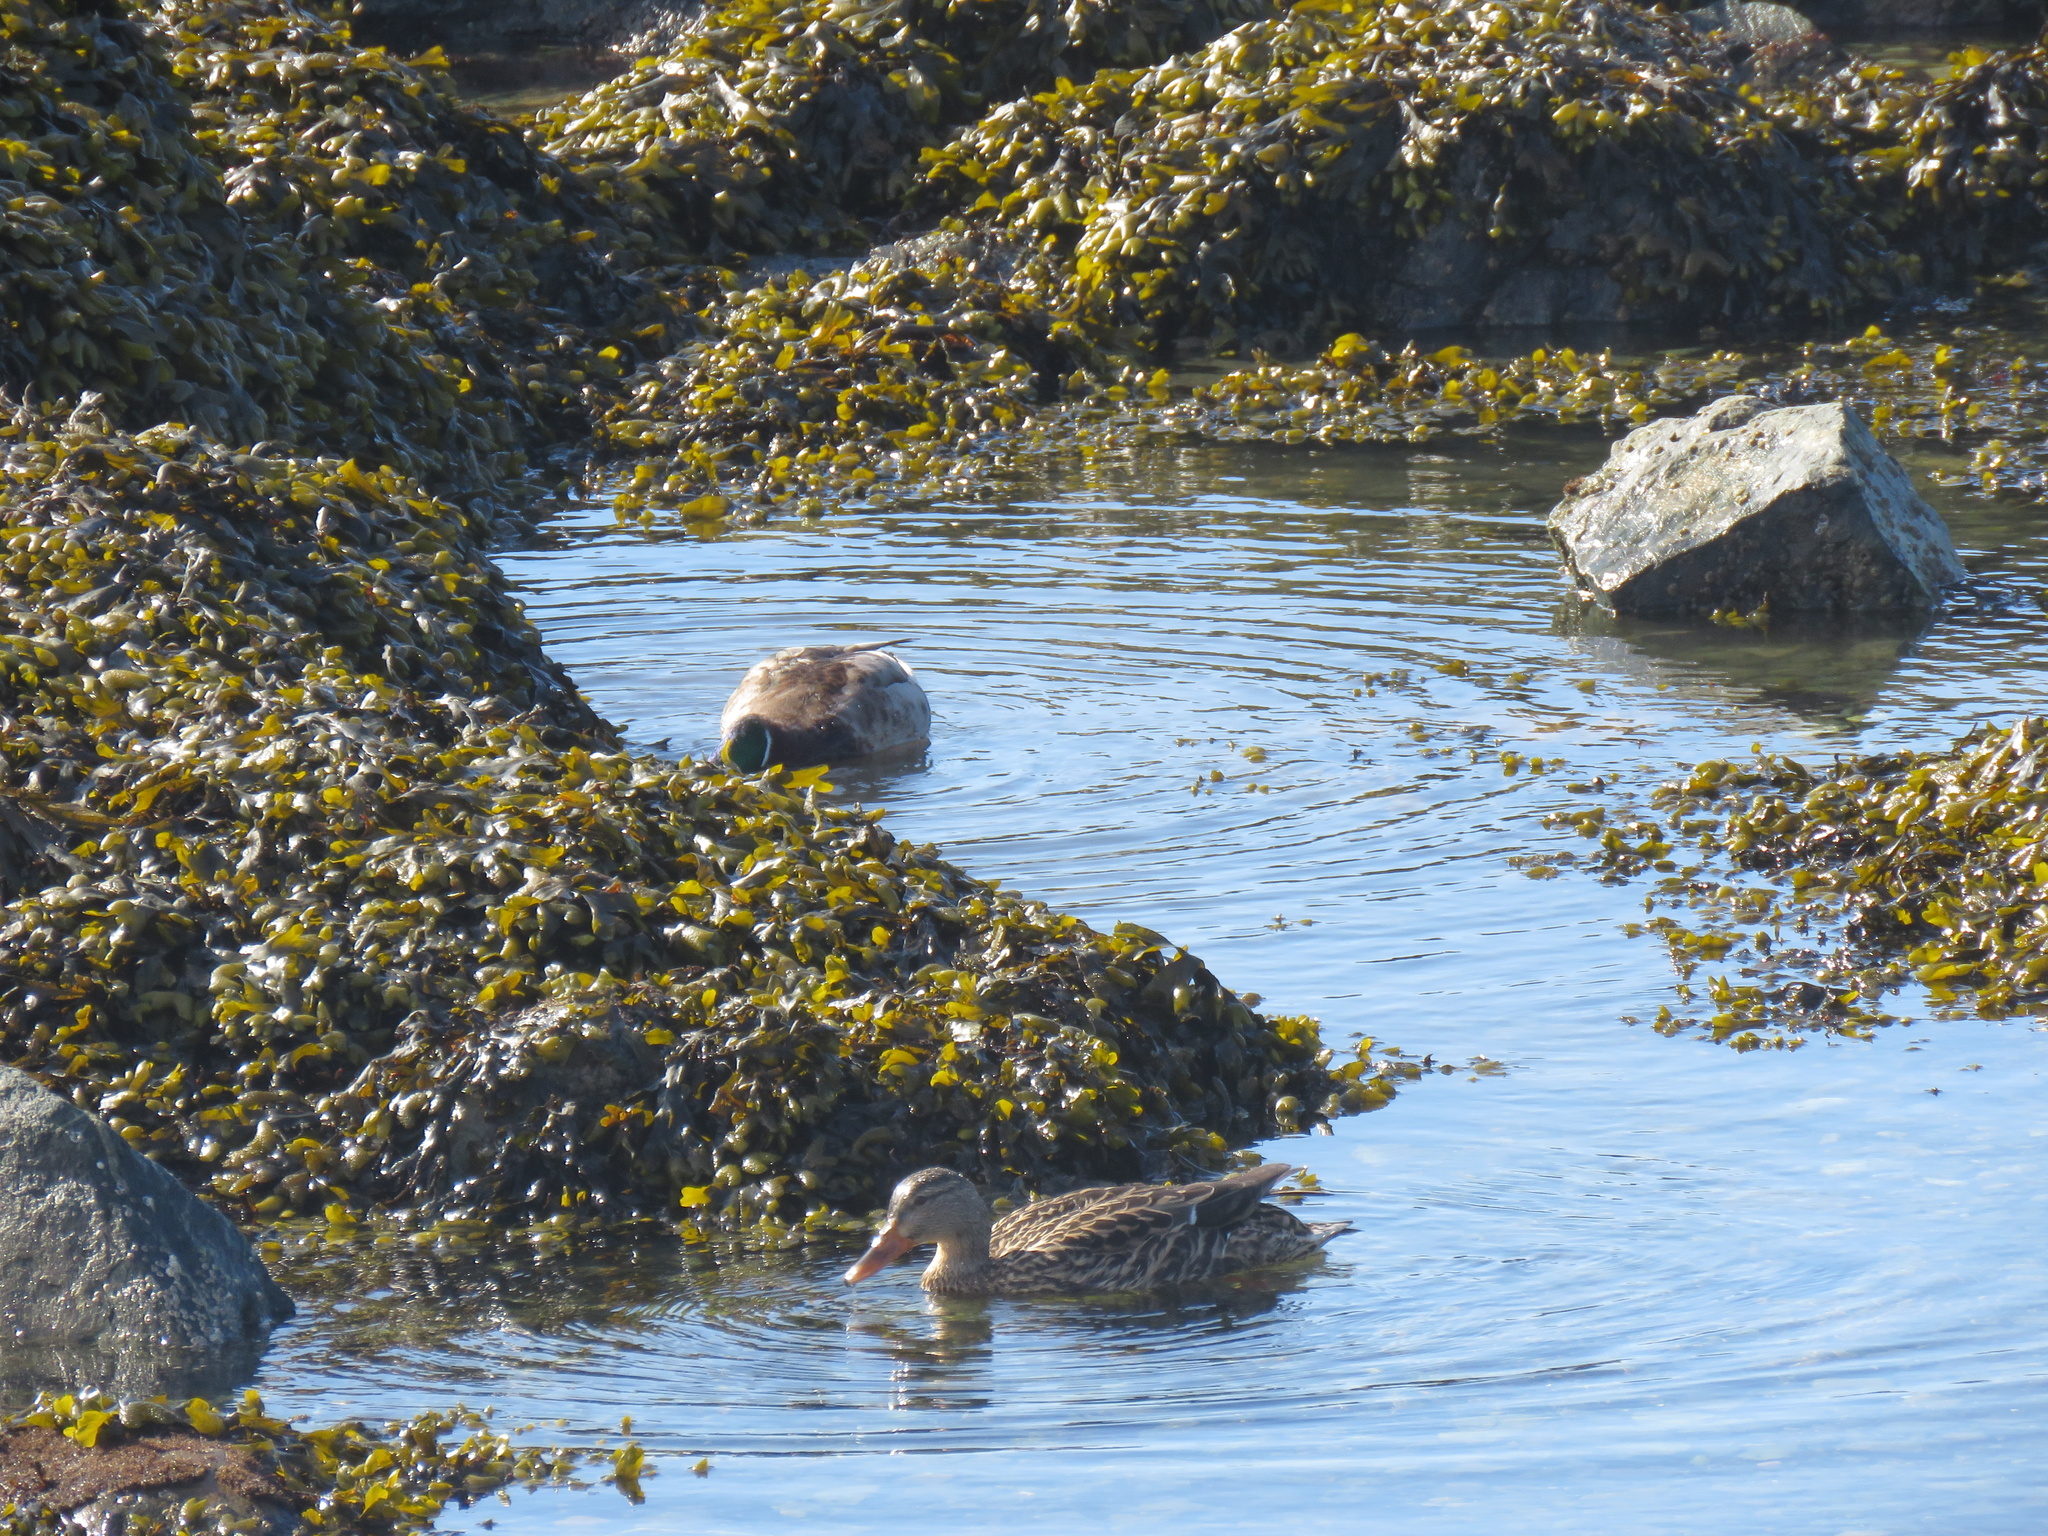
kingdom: Animalia
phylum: Chordata
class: Aves
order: Anseriformes
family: Anatidae
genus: Anas
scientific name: Anas platyrhynchos
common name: Mallard
